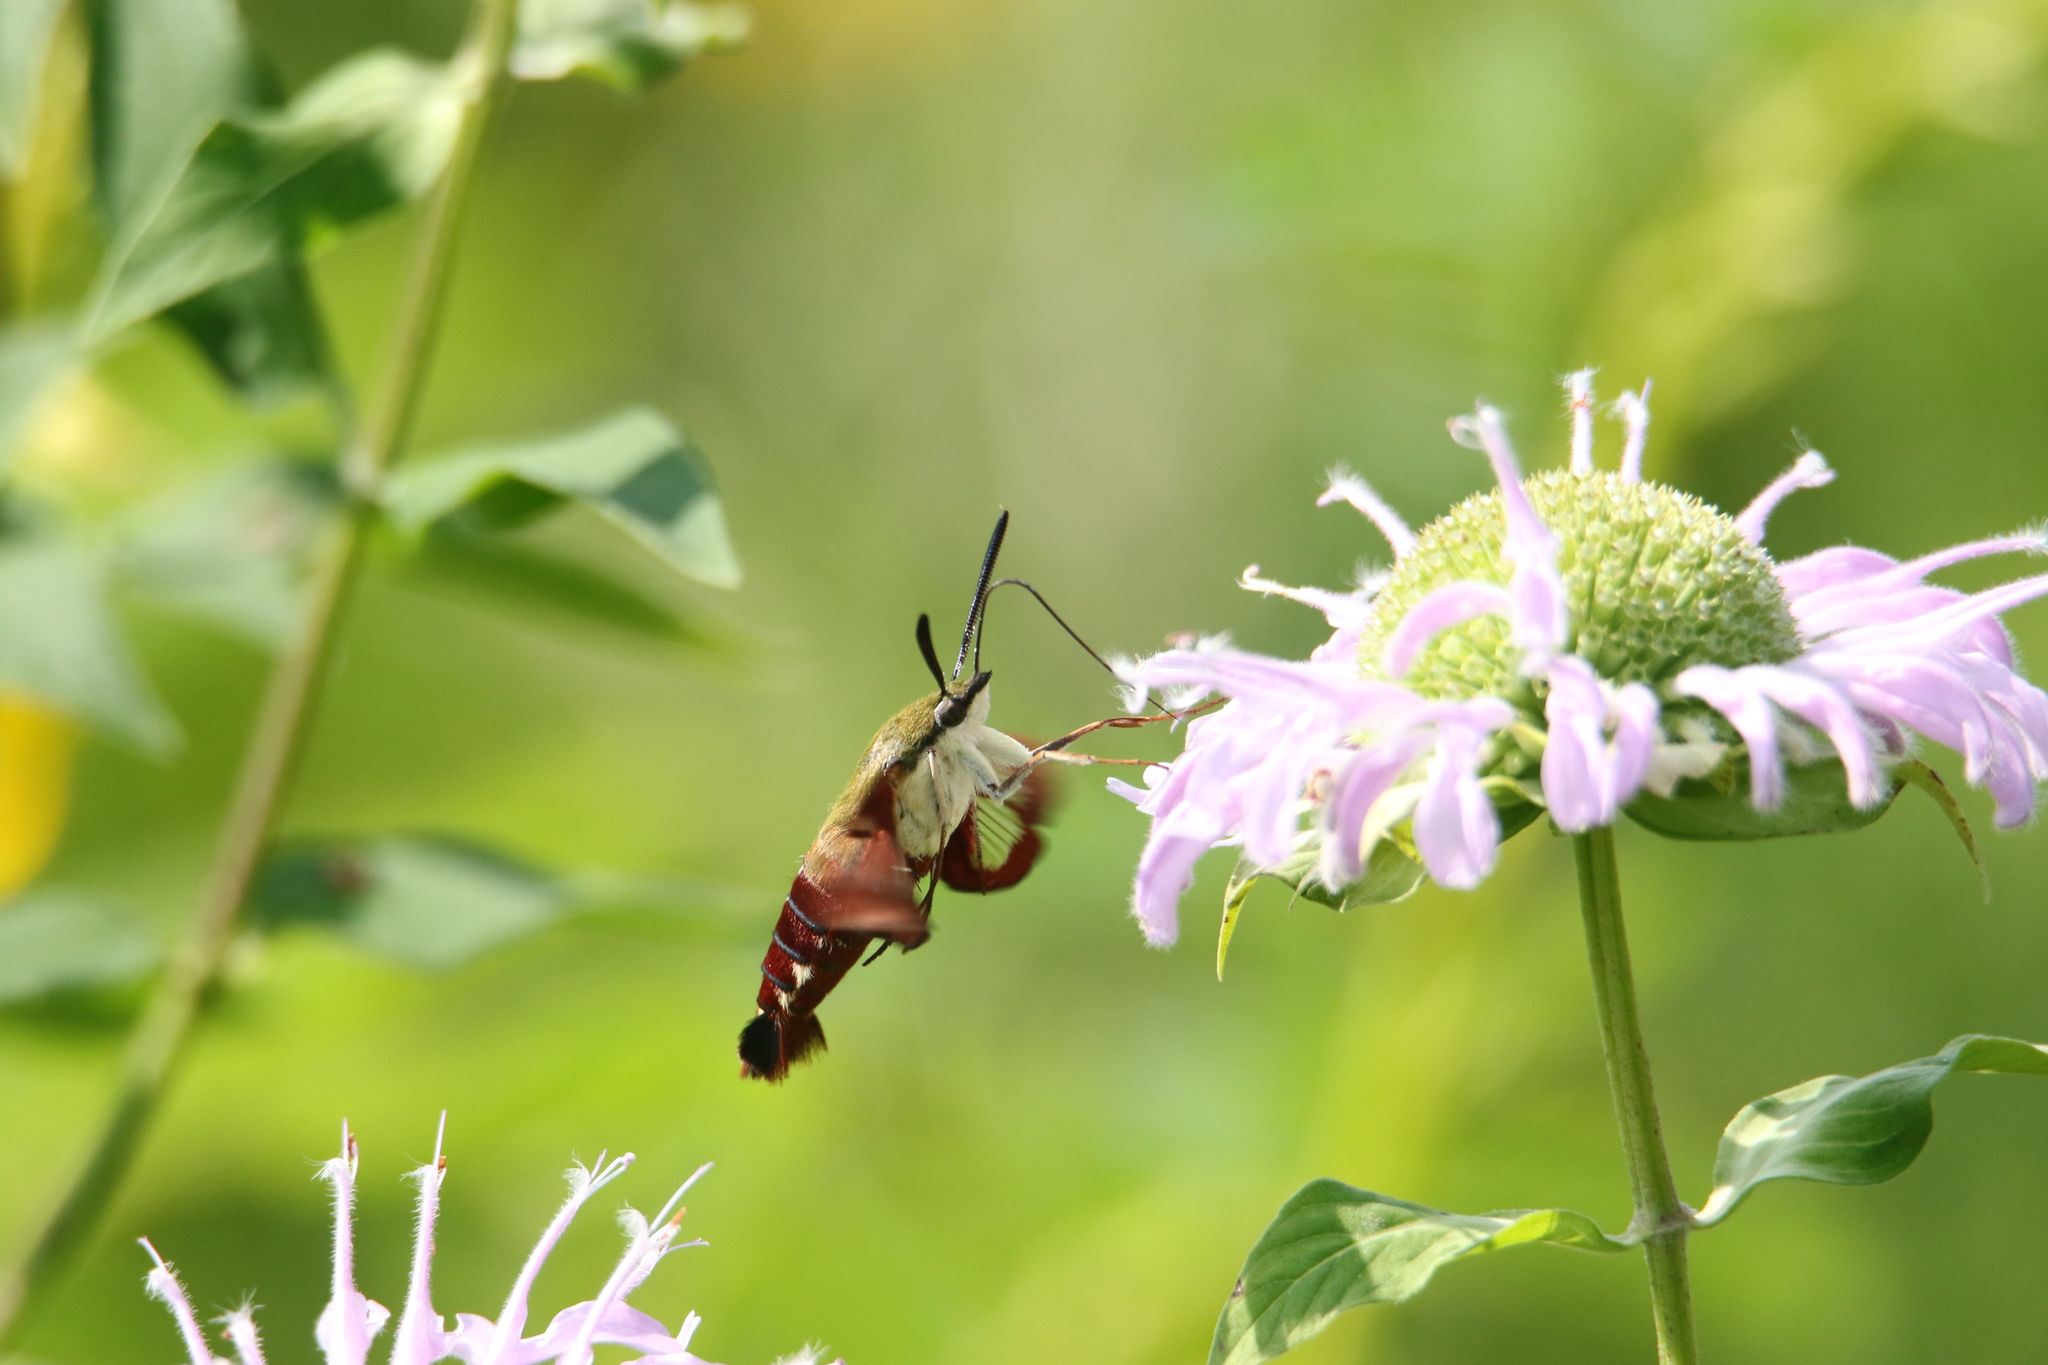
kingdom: Animalia
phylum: Arthropoda
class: Insecta
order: Lepidoptera
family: Sphingidae
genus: Hemaris
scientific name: Hemaris thysbe
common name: Common clear-wing
